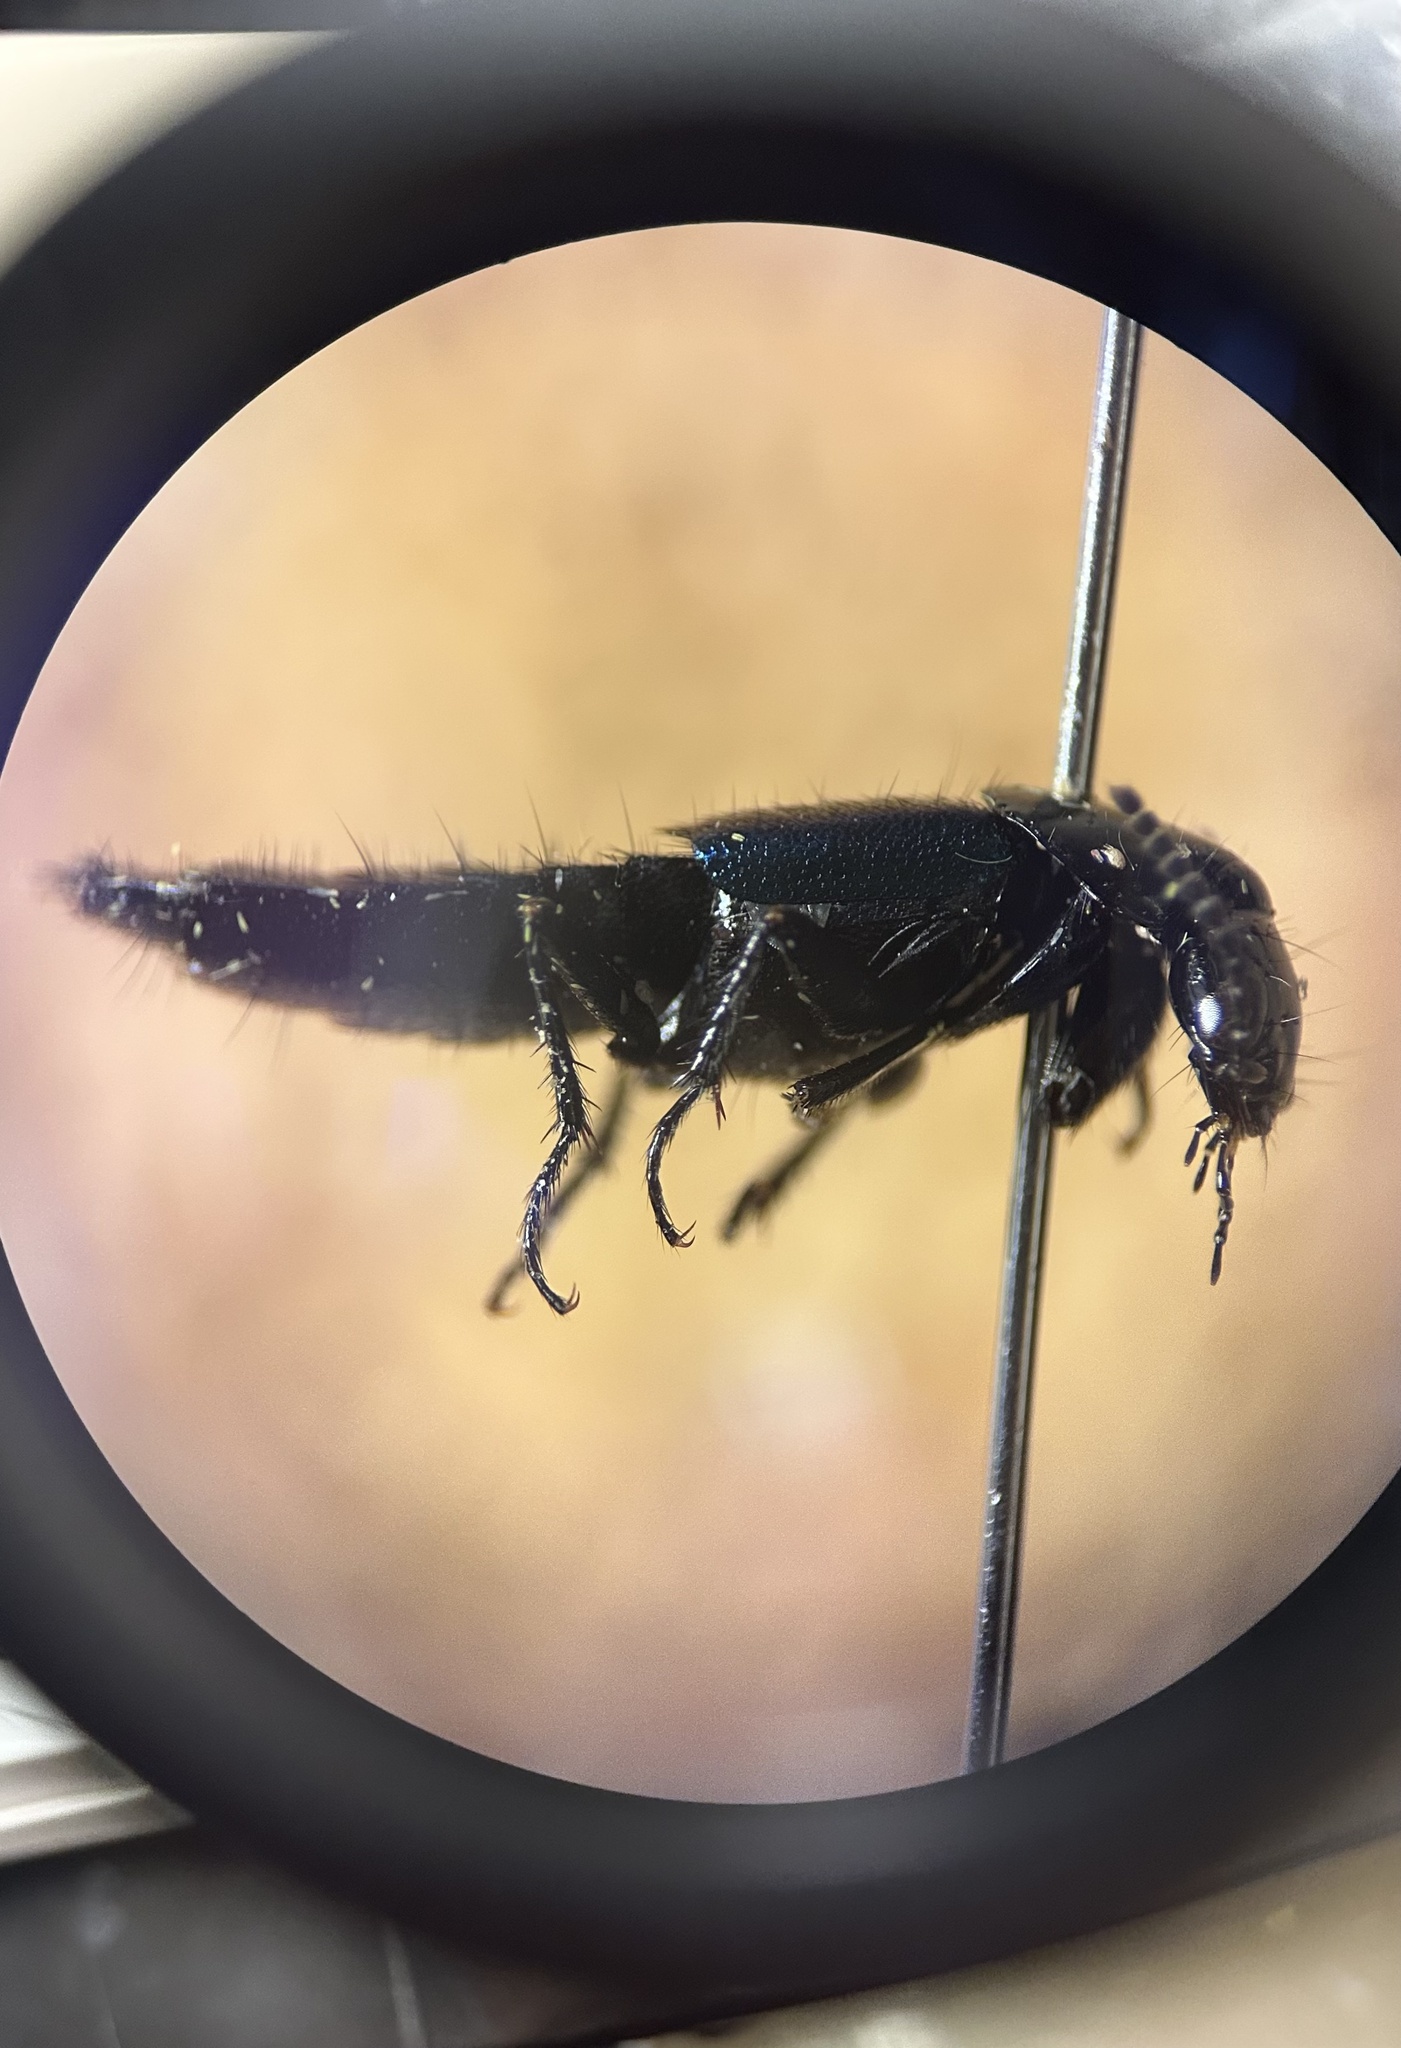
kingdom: Animalia
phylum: Arthropoda
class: Insecta
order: Coleoptera
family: Staphylinidae
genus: Philonthus
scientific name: Philonthus caeruleipennis
